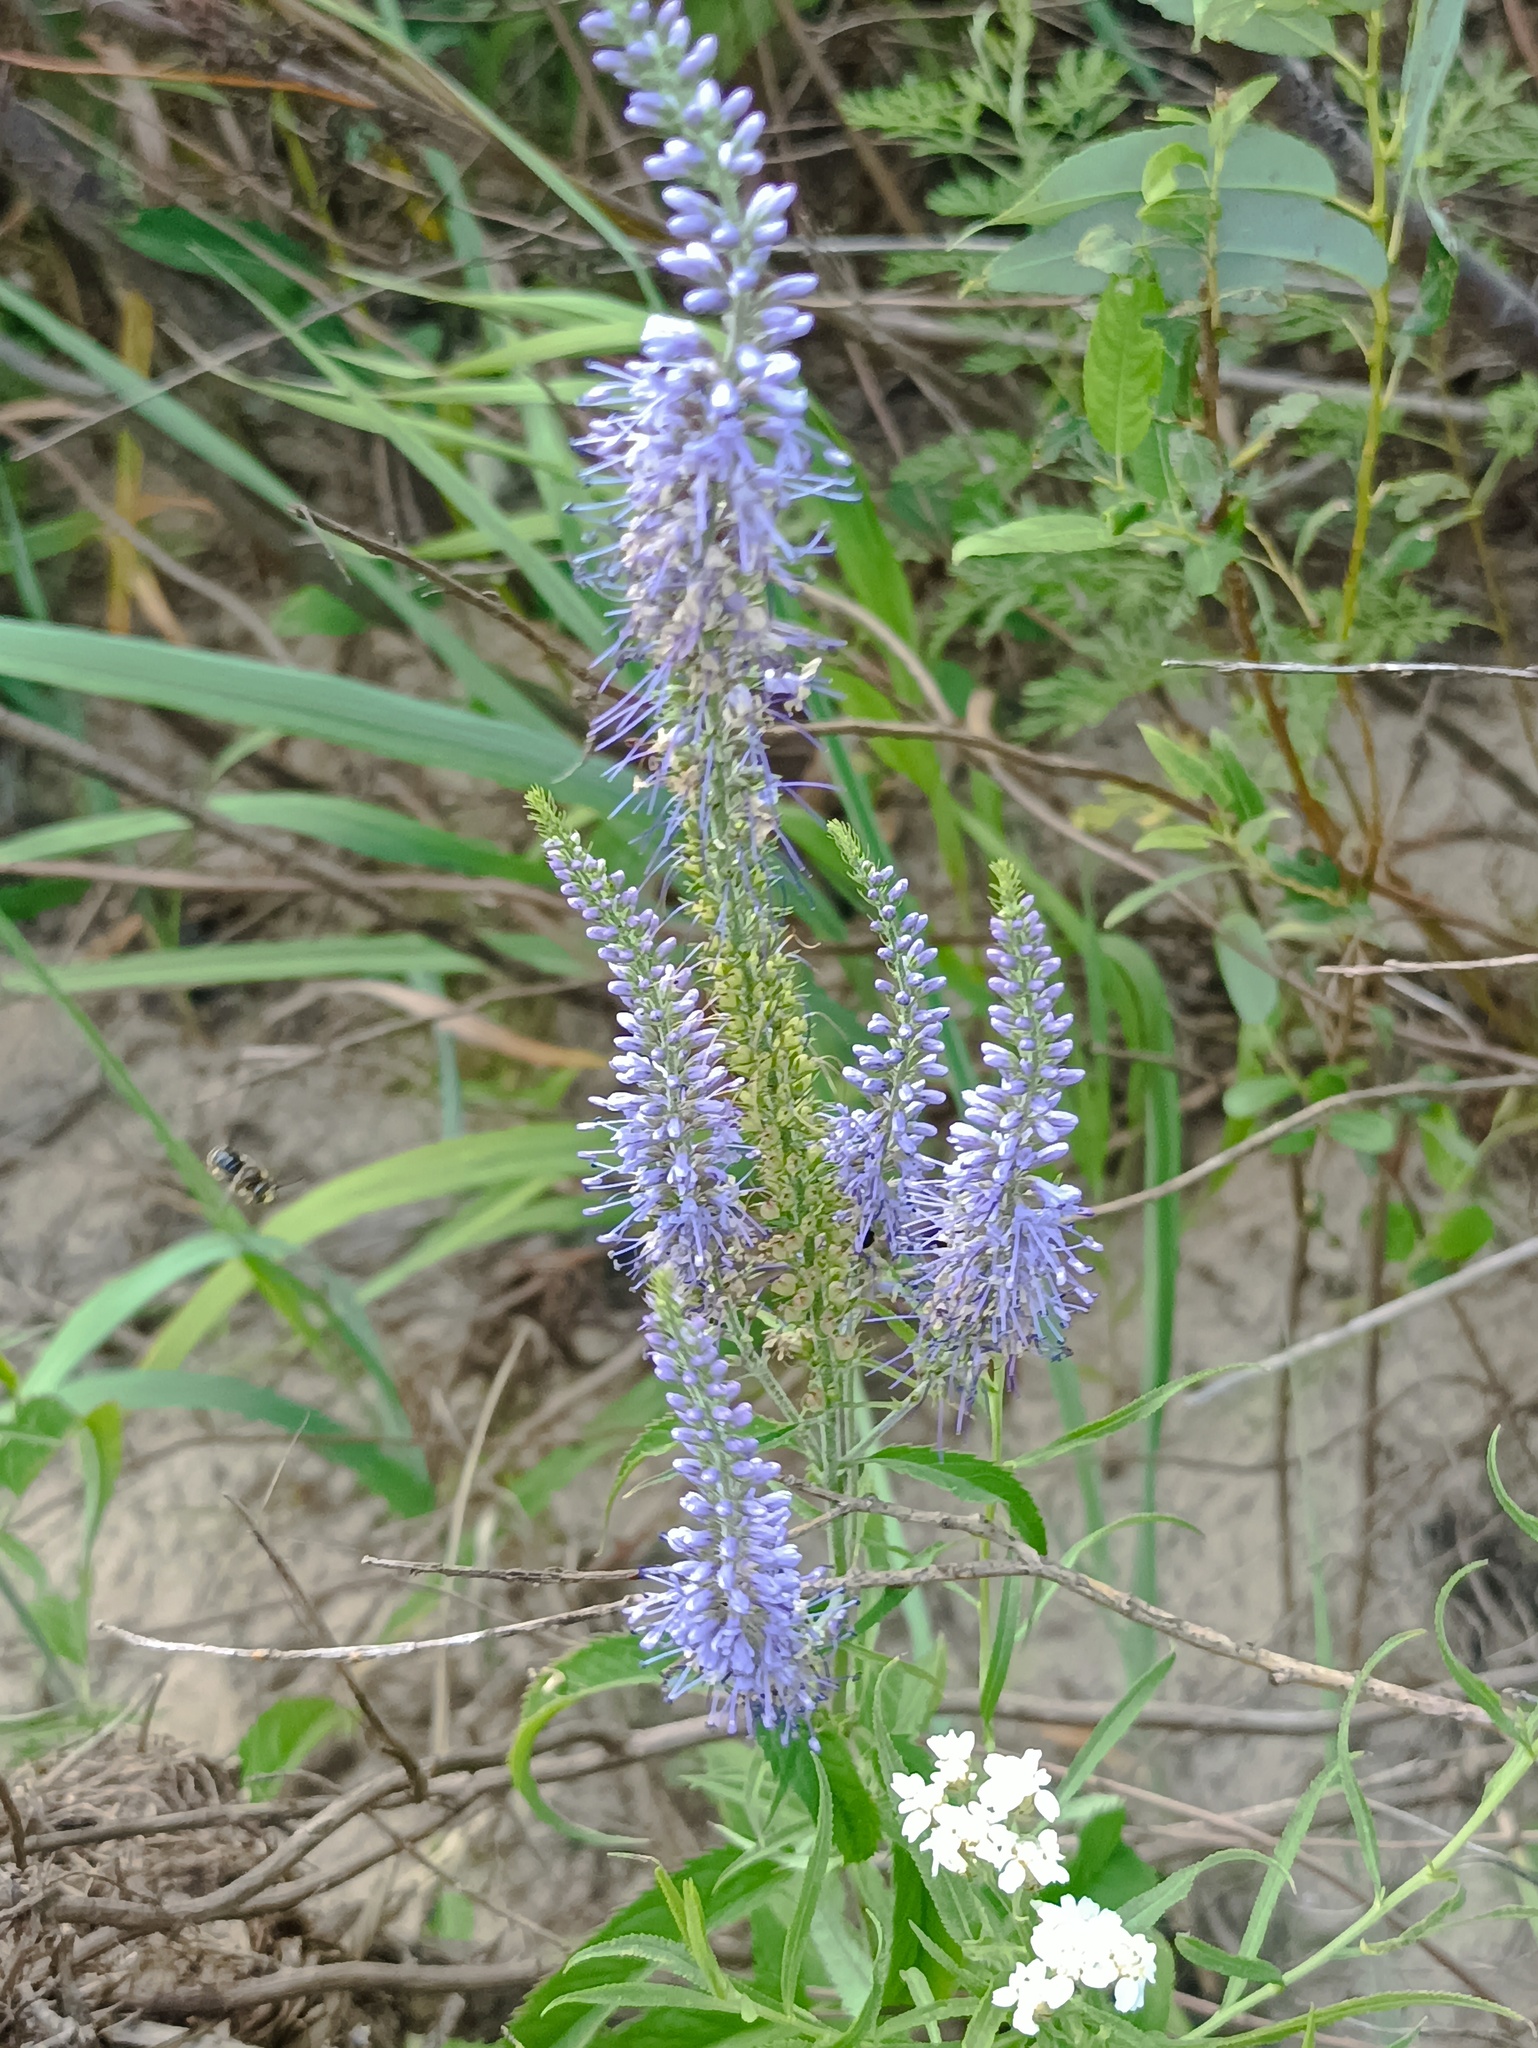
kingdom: Plantae
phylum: Tracheophyta
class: Magnoliopsida
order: Lamiales
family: Plantaginaceae
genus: Veronica
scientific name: Veronica longifolia
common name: Garden speedwell
